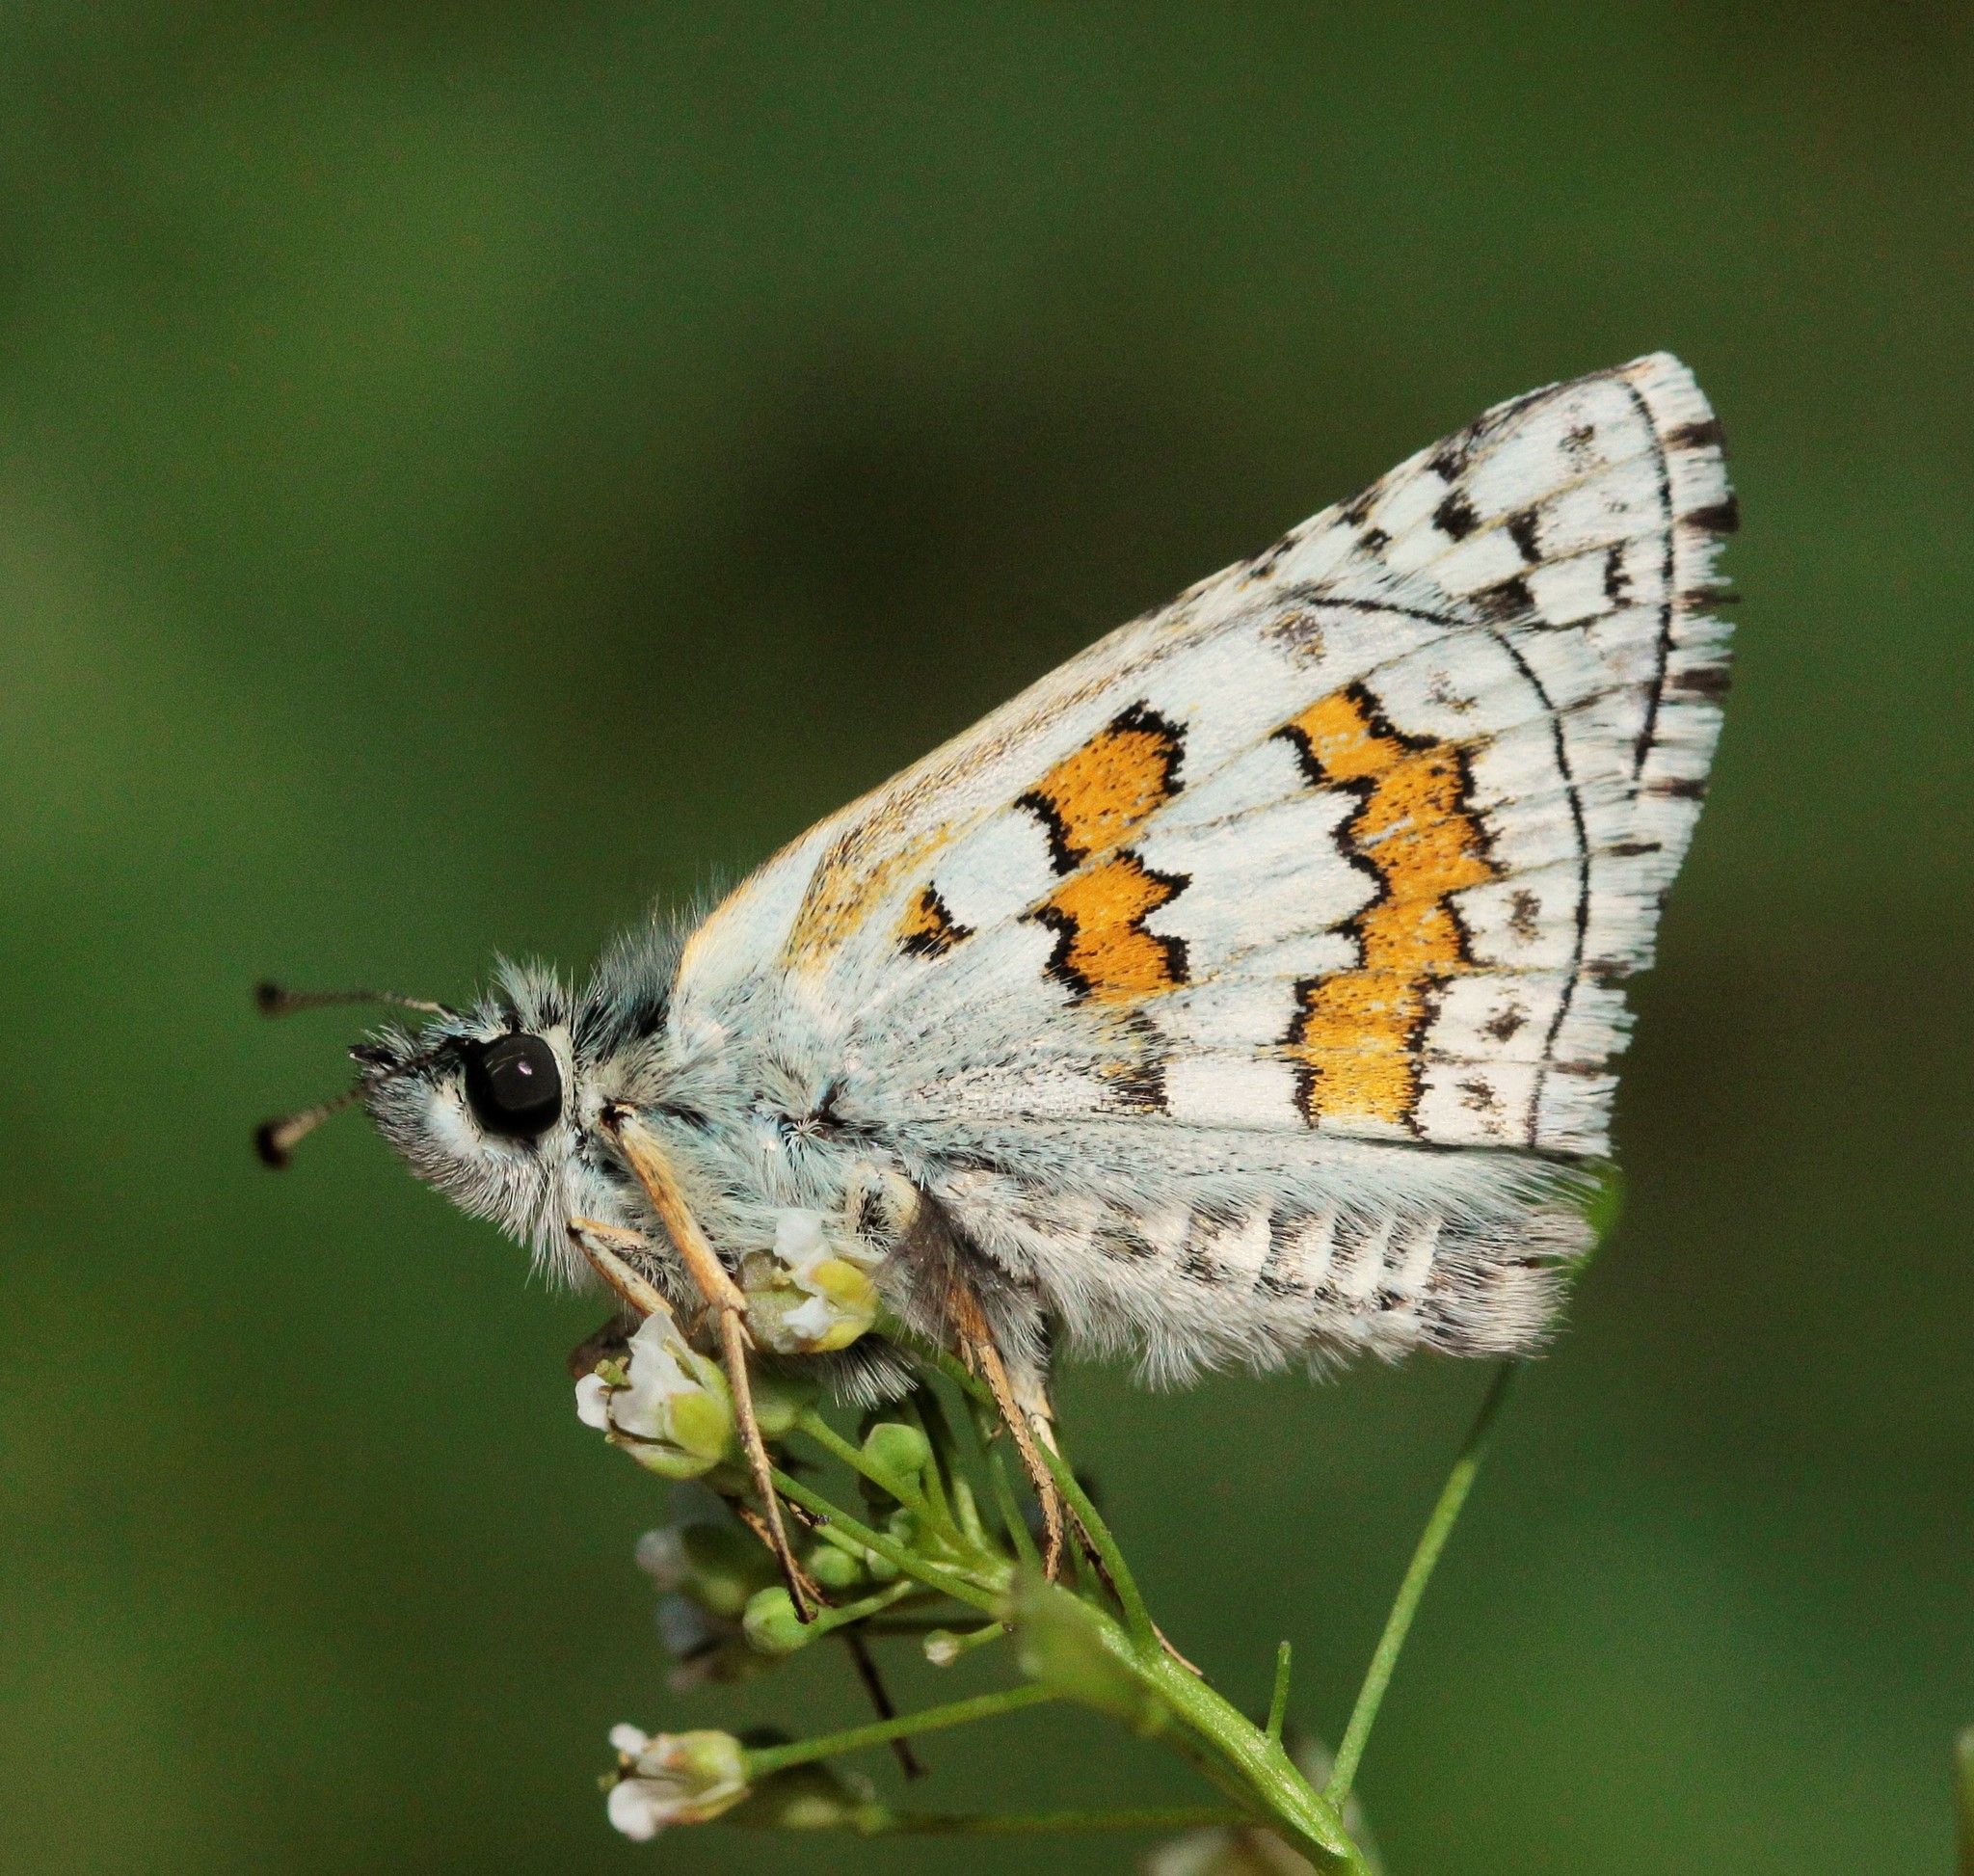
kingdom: Animalia
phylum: Arthropoda
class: Insecta
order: Lepidoptera
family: Hesperiidae
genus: Pyrgus
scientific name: Pyrgus sidae
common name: Yellow-banded skipper
